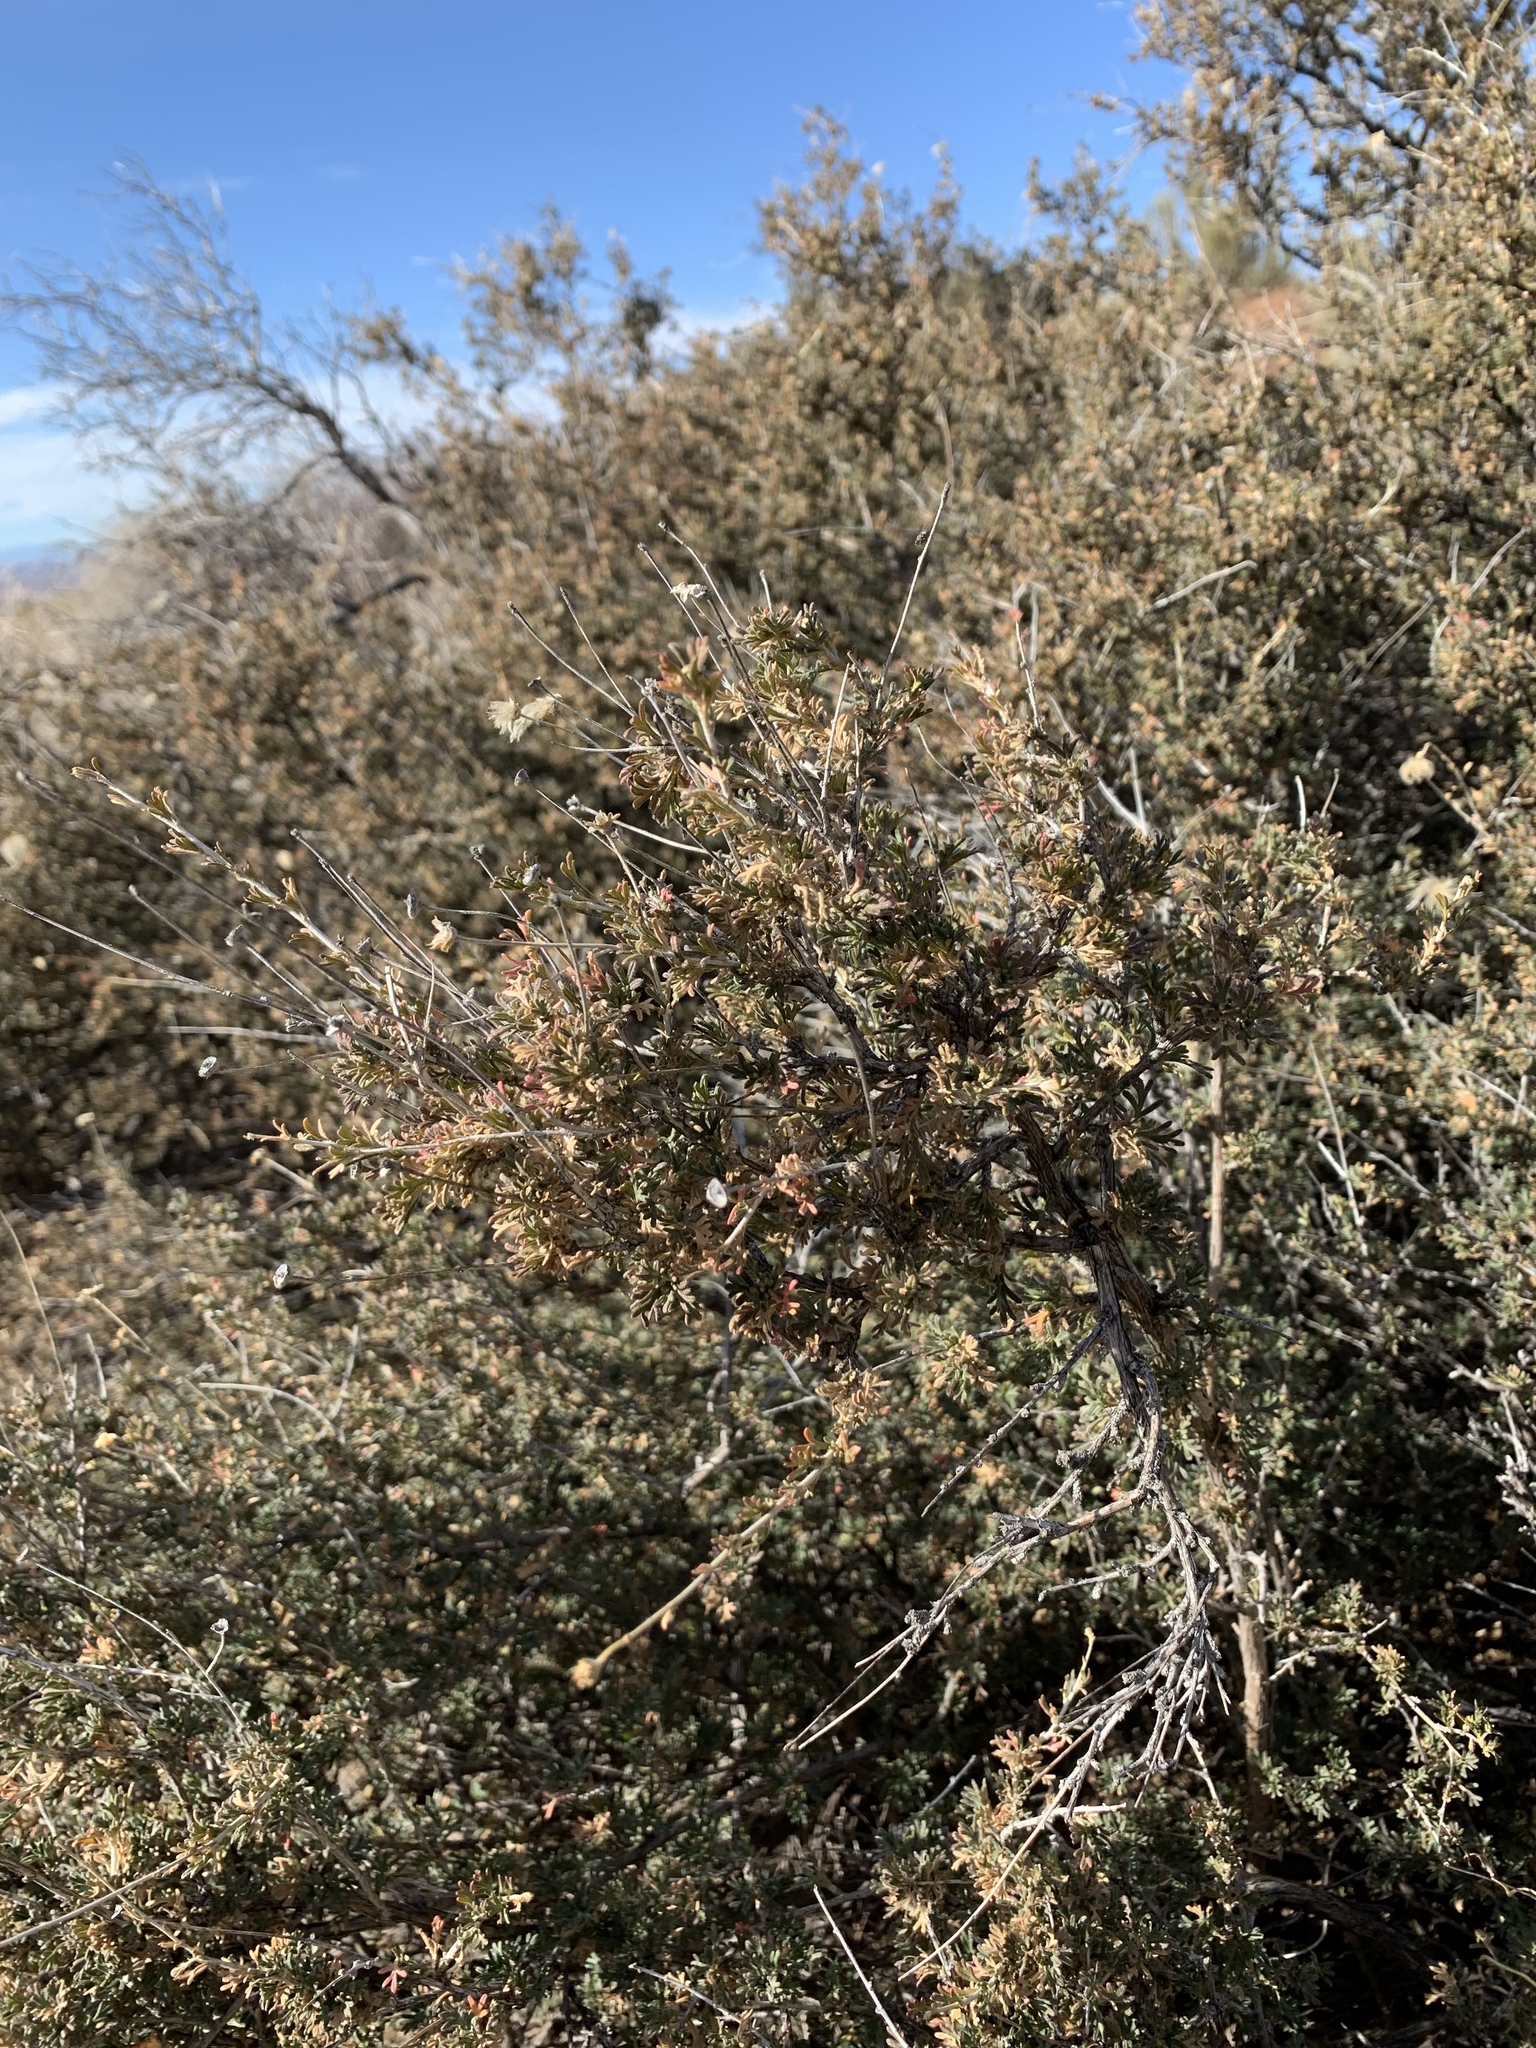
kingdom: Plantae
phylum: Tracheophyta
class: Magnoliopsida
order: Rosales
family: Rosaceae
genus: Fallugia
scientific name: Fallugia paradoxa
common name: Apache-plume
